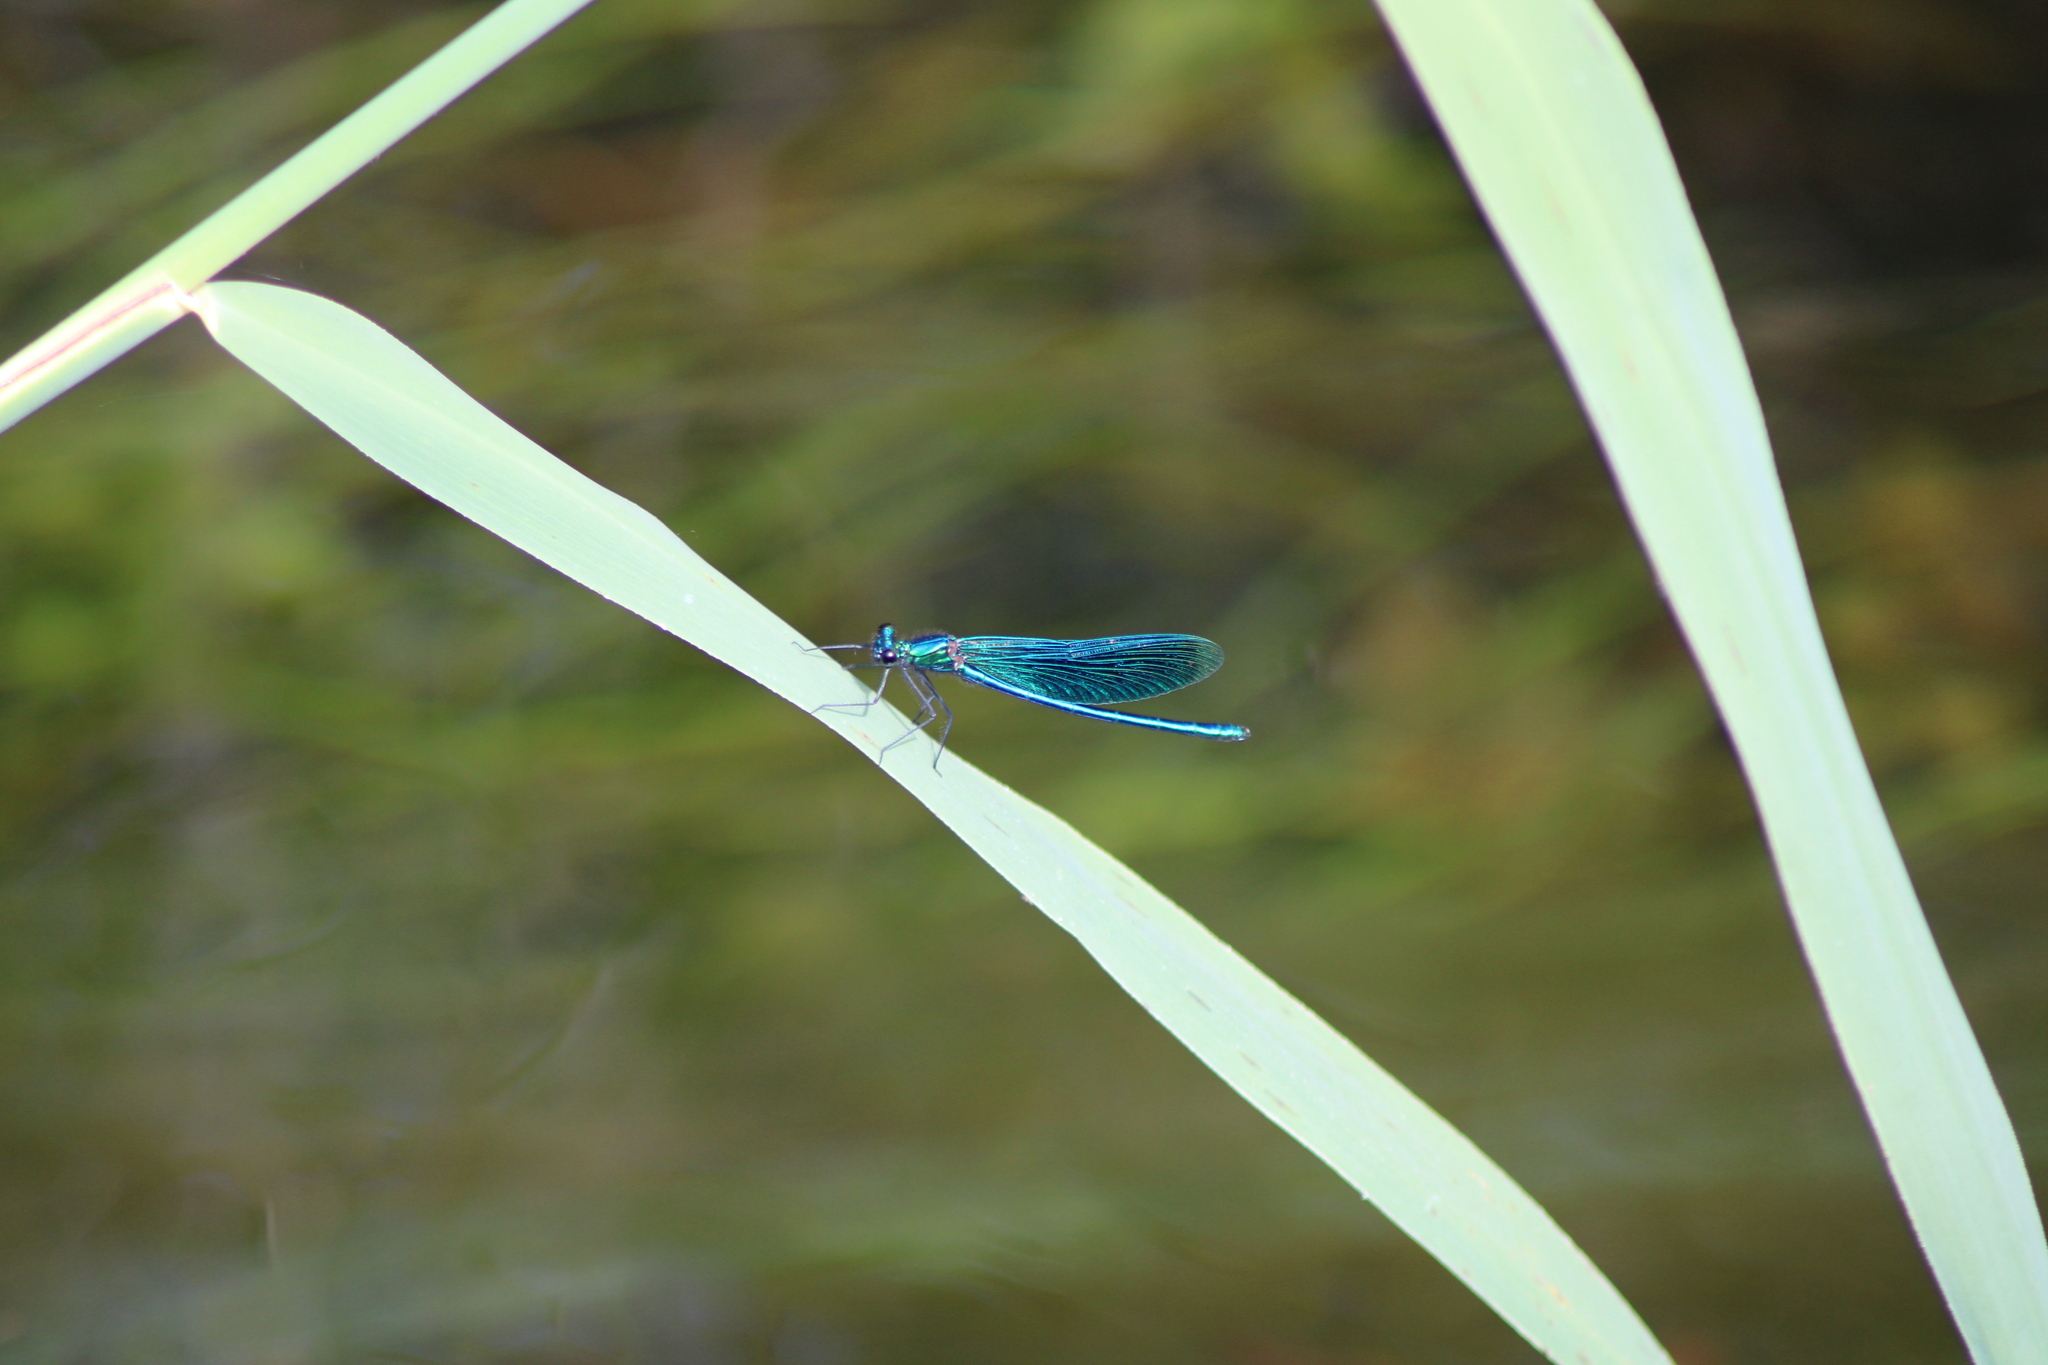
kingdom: Animalia
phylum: Arthropoda
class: Insecta
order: Odonata
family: Calopterygidae
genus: Calopteryx
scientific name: Calopteryx splendens
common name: Banded demoiselle
